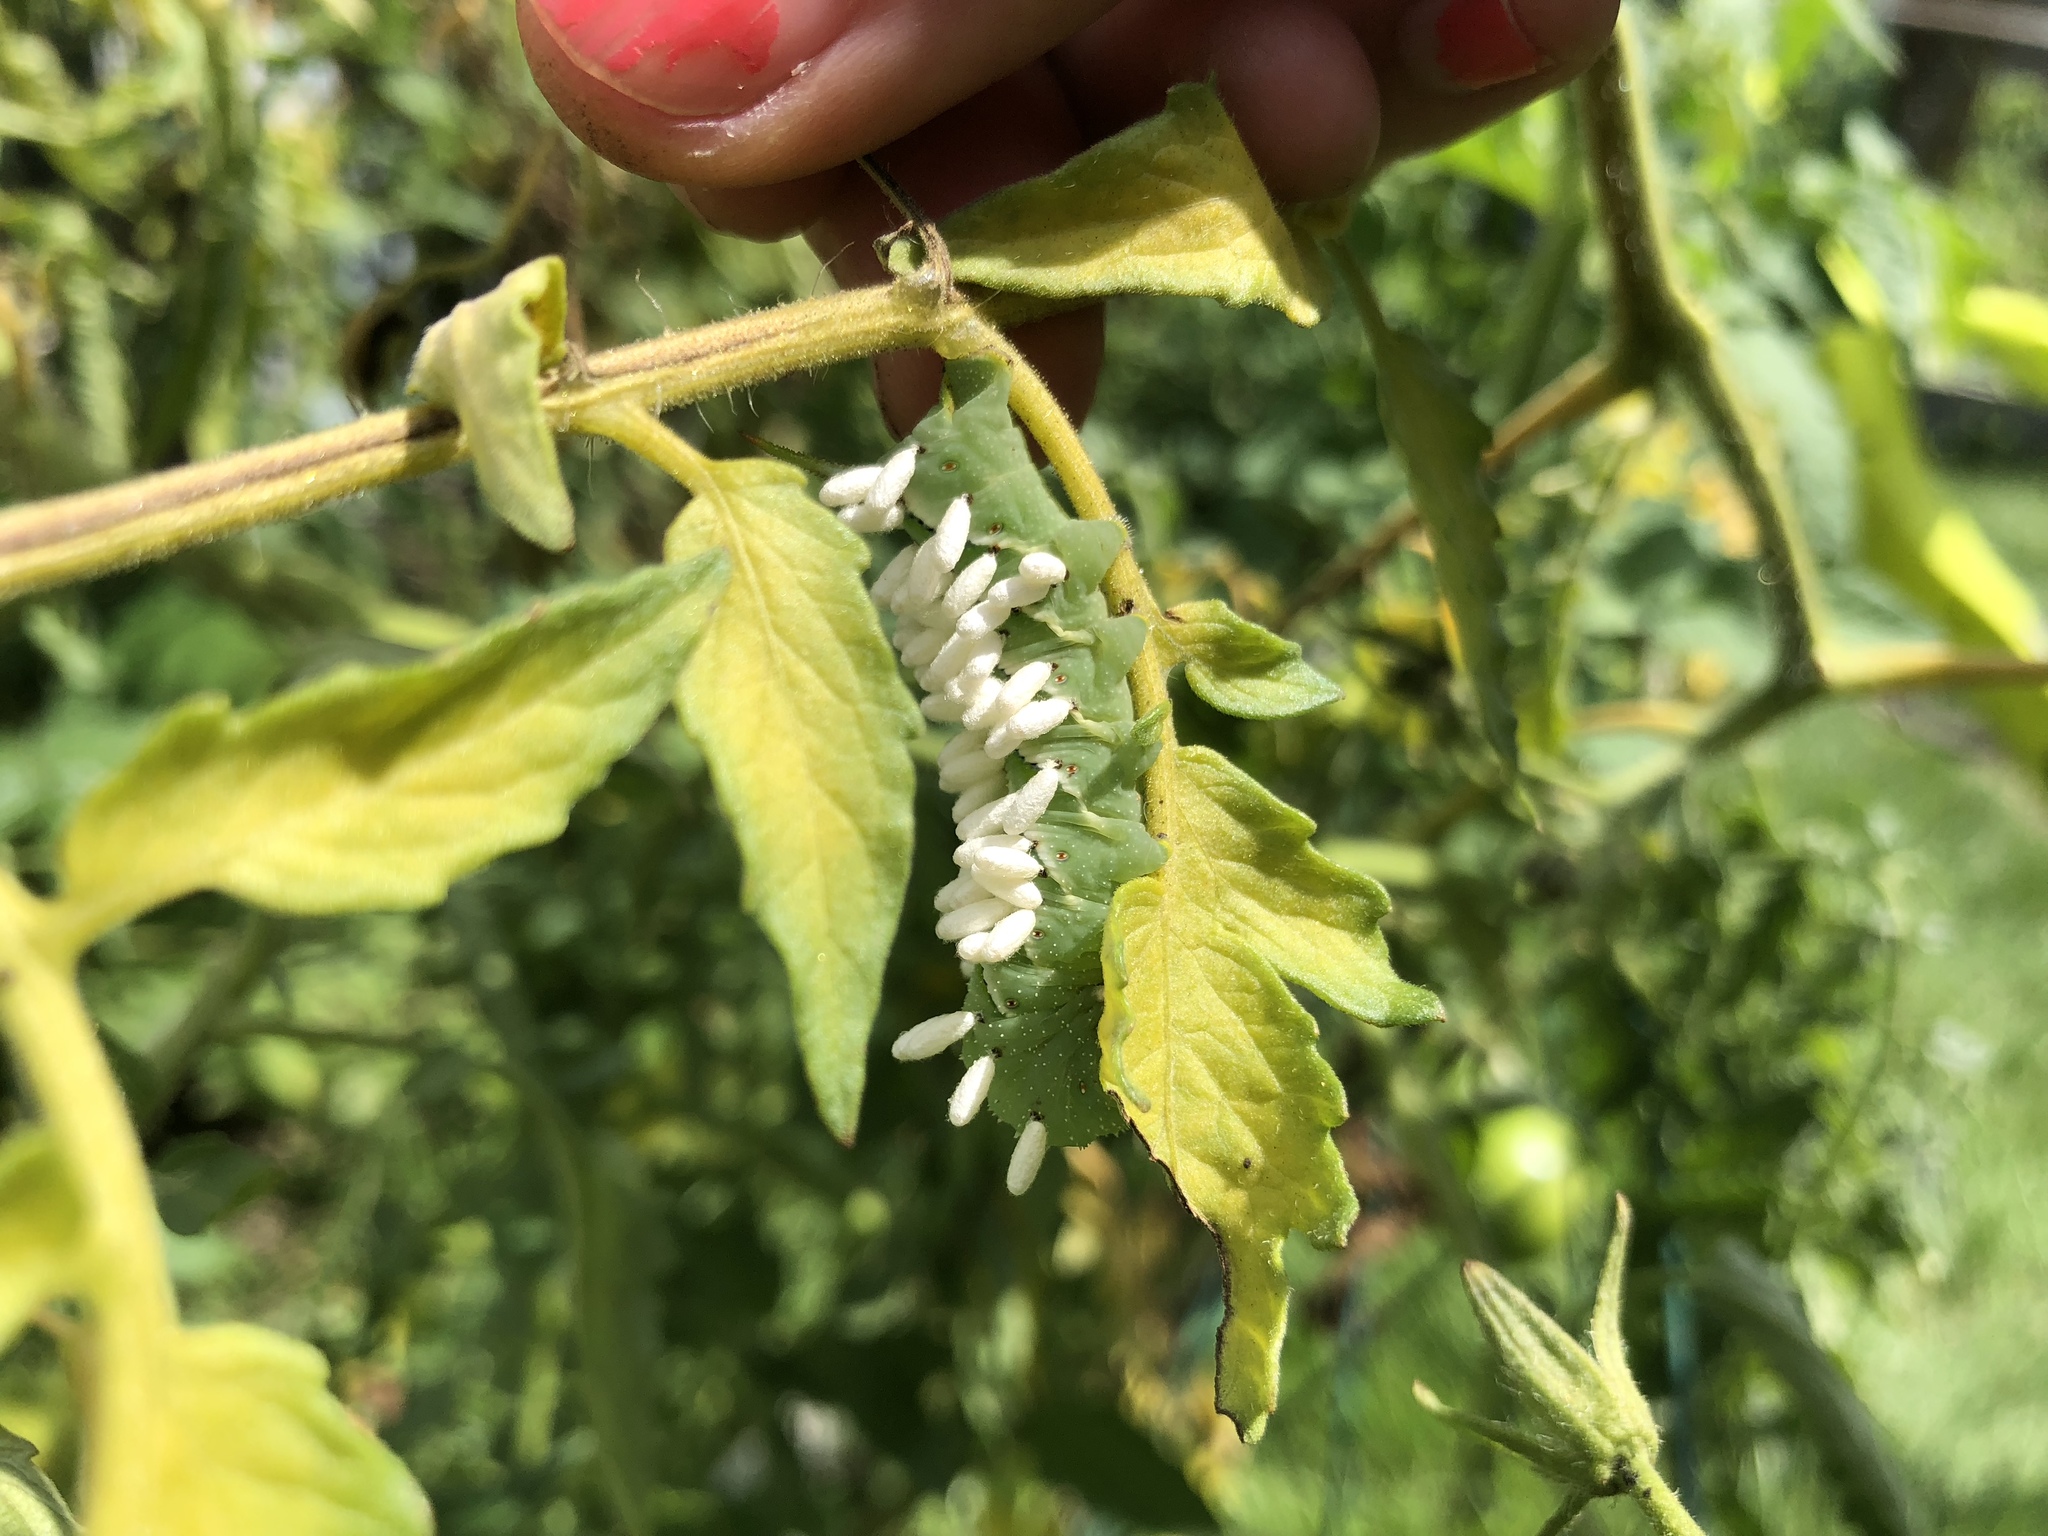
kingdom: Animalia
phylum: Arthropoda
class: Insecta
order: Hymenoptera
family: Braconidae
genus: Cotesia
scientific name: Cotesia congregata
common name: Hornworm parasitoid wasp
